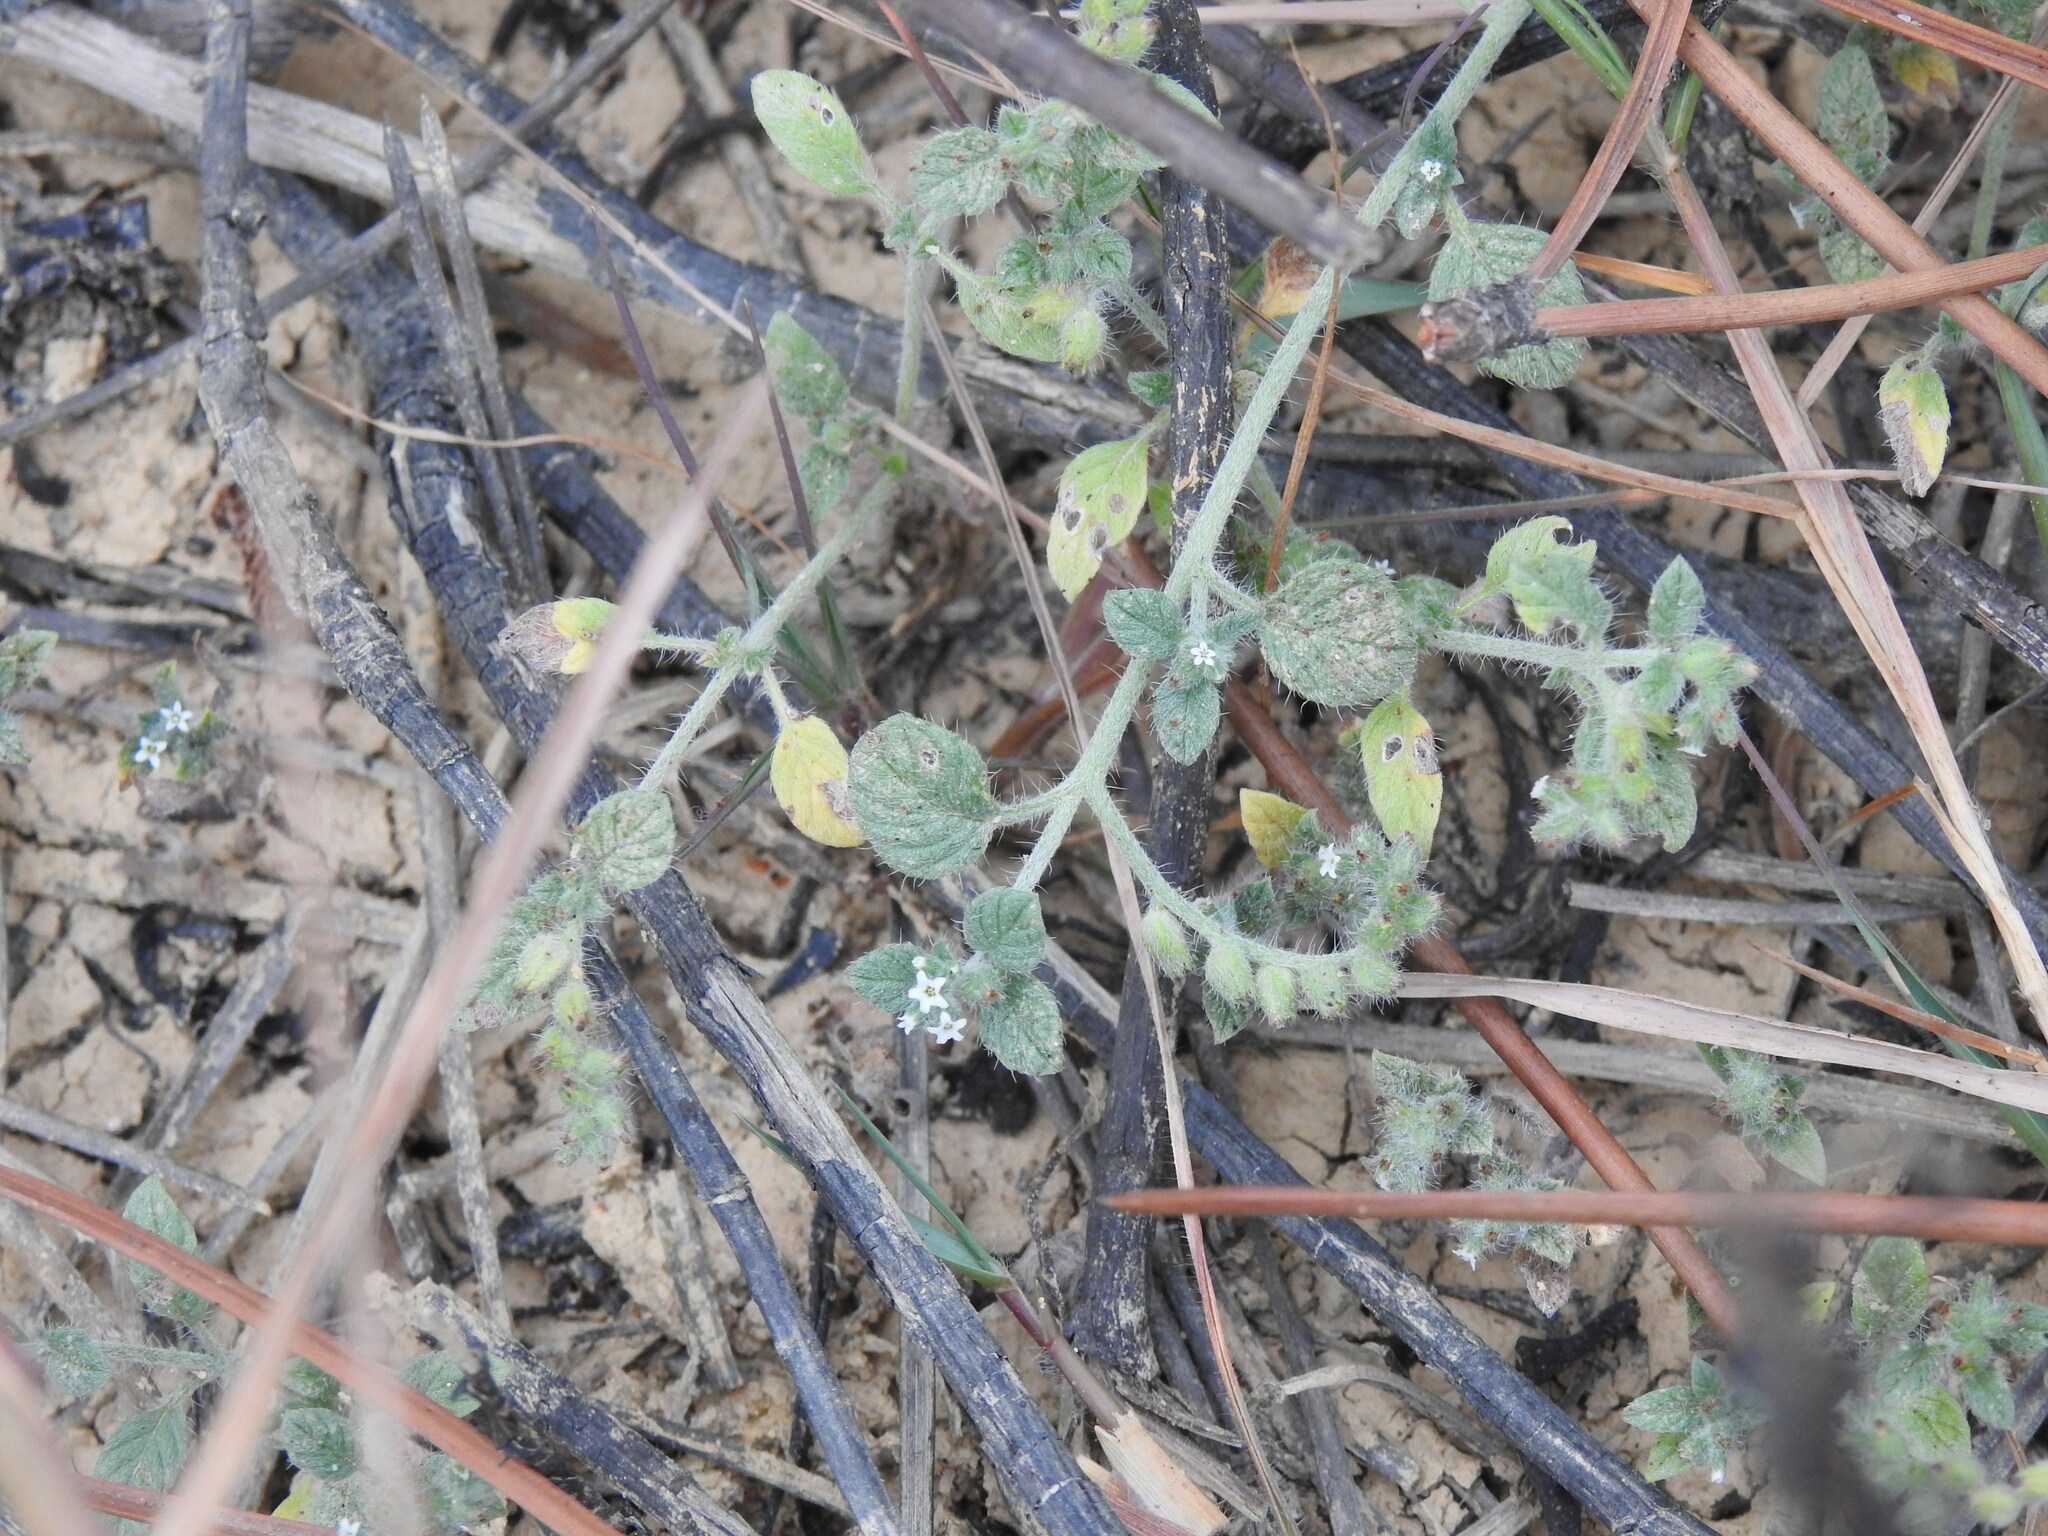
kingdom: Plantae
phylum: Tracheophyta
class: Magnoliopsida
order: Boraginales
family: Heliotropiaceae
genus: Heliotropium
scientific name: Heliotropium supinum
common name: Dwarf heliotrope
